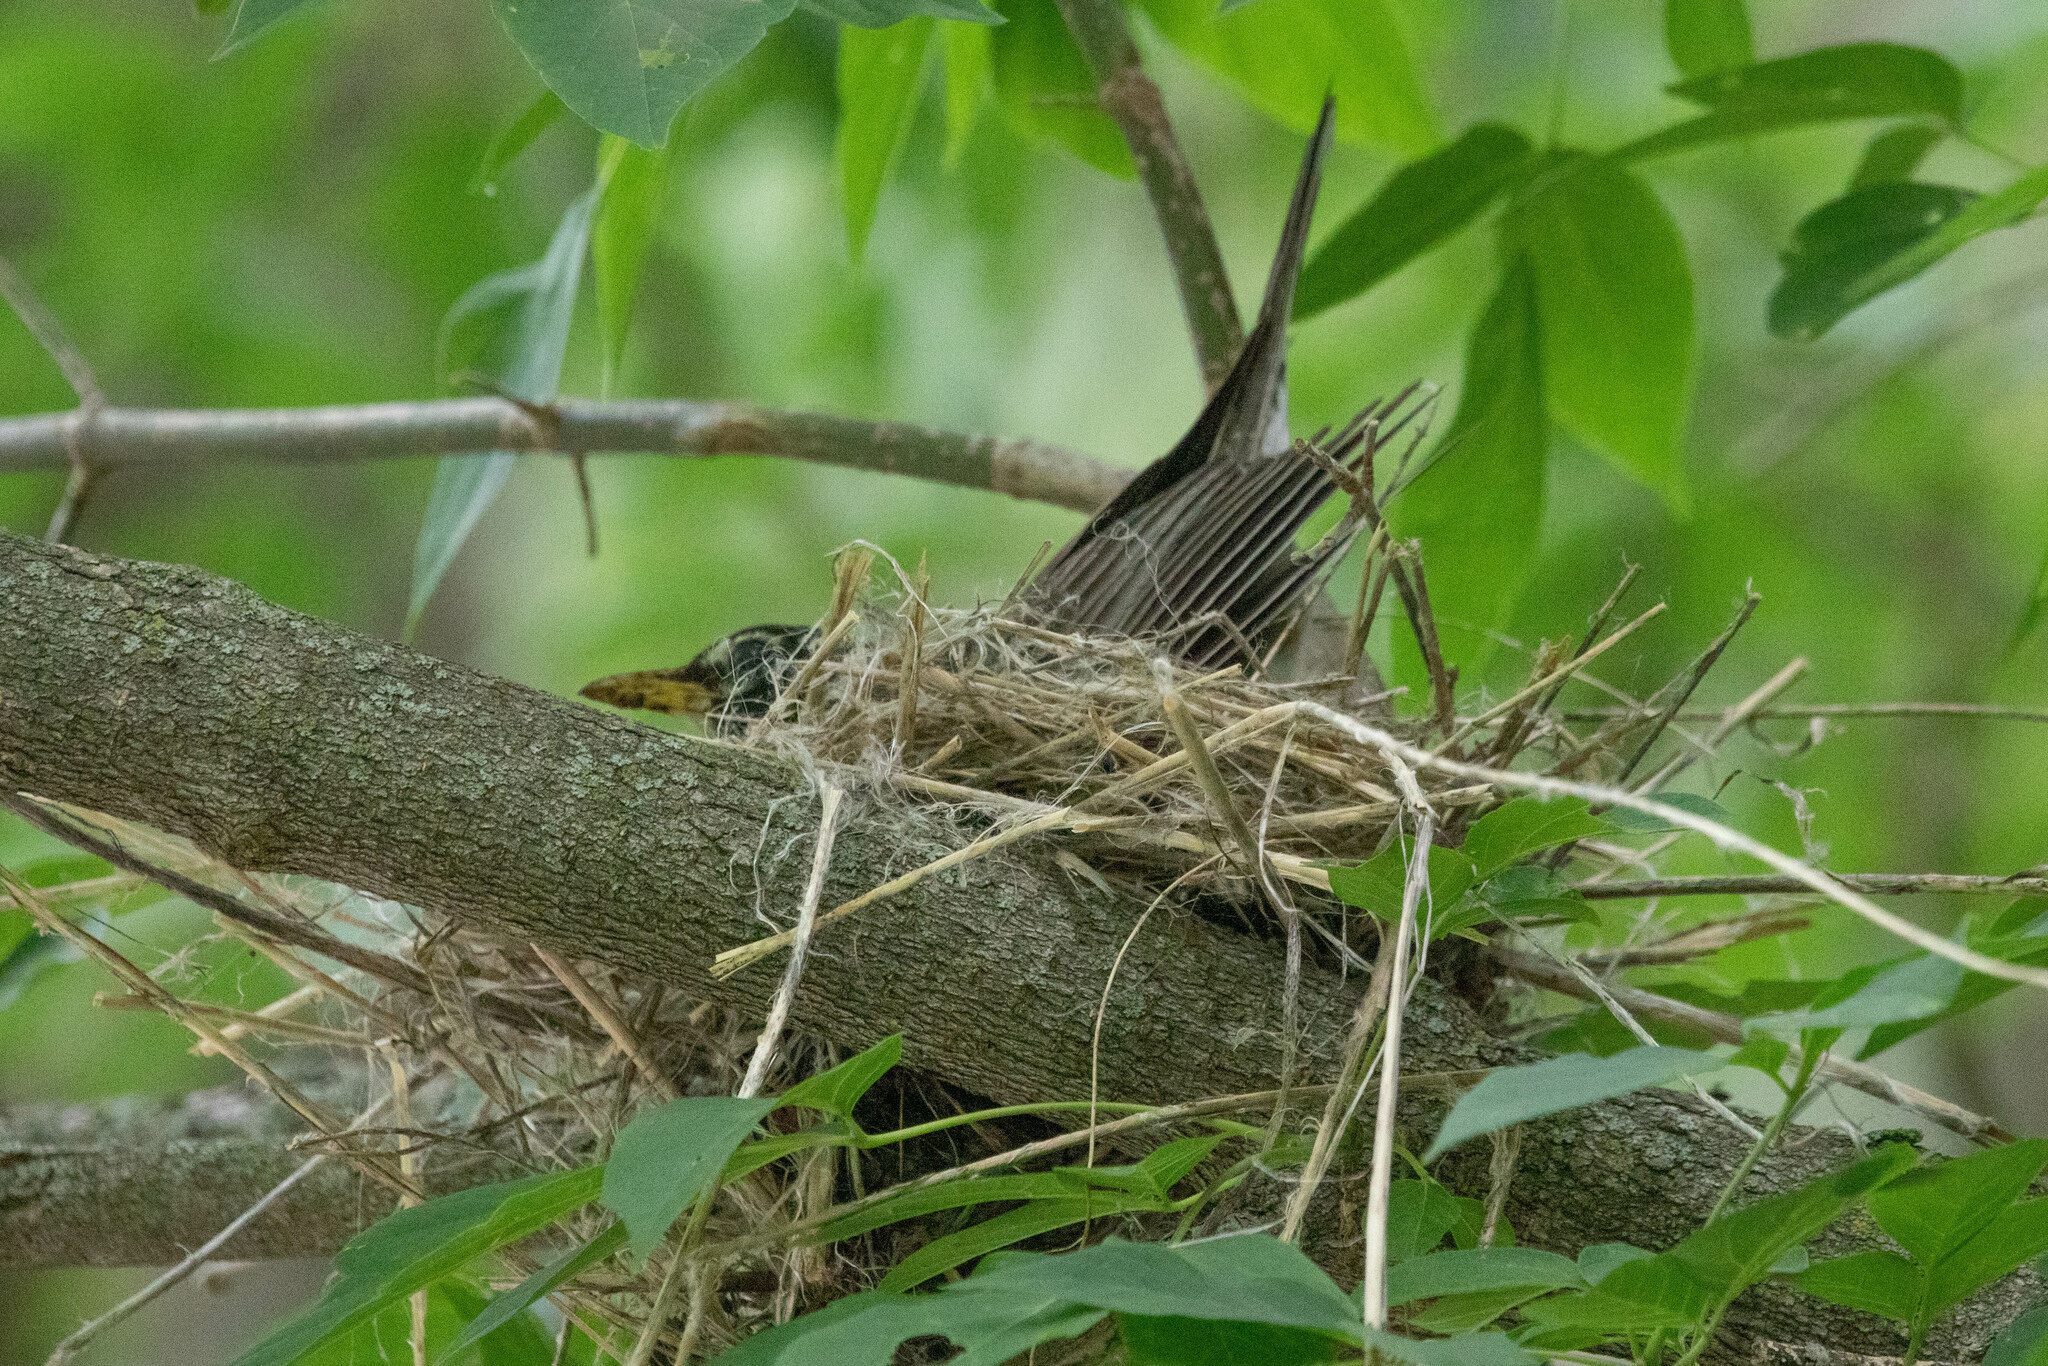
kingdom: Animalia
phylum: Chordata
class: Aves
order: Passeriformes
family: Turdidae
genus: Turdus
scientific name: Turdus migratorius
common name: American robin
